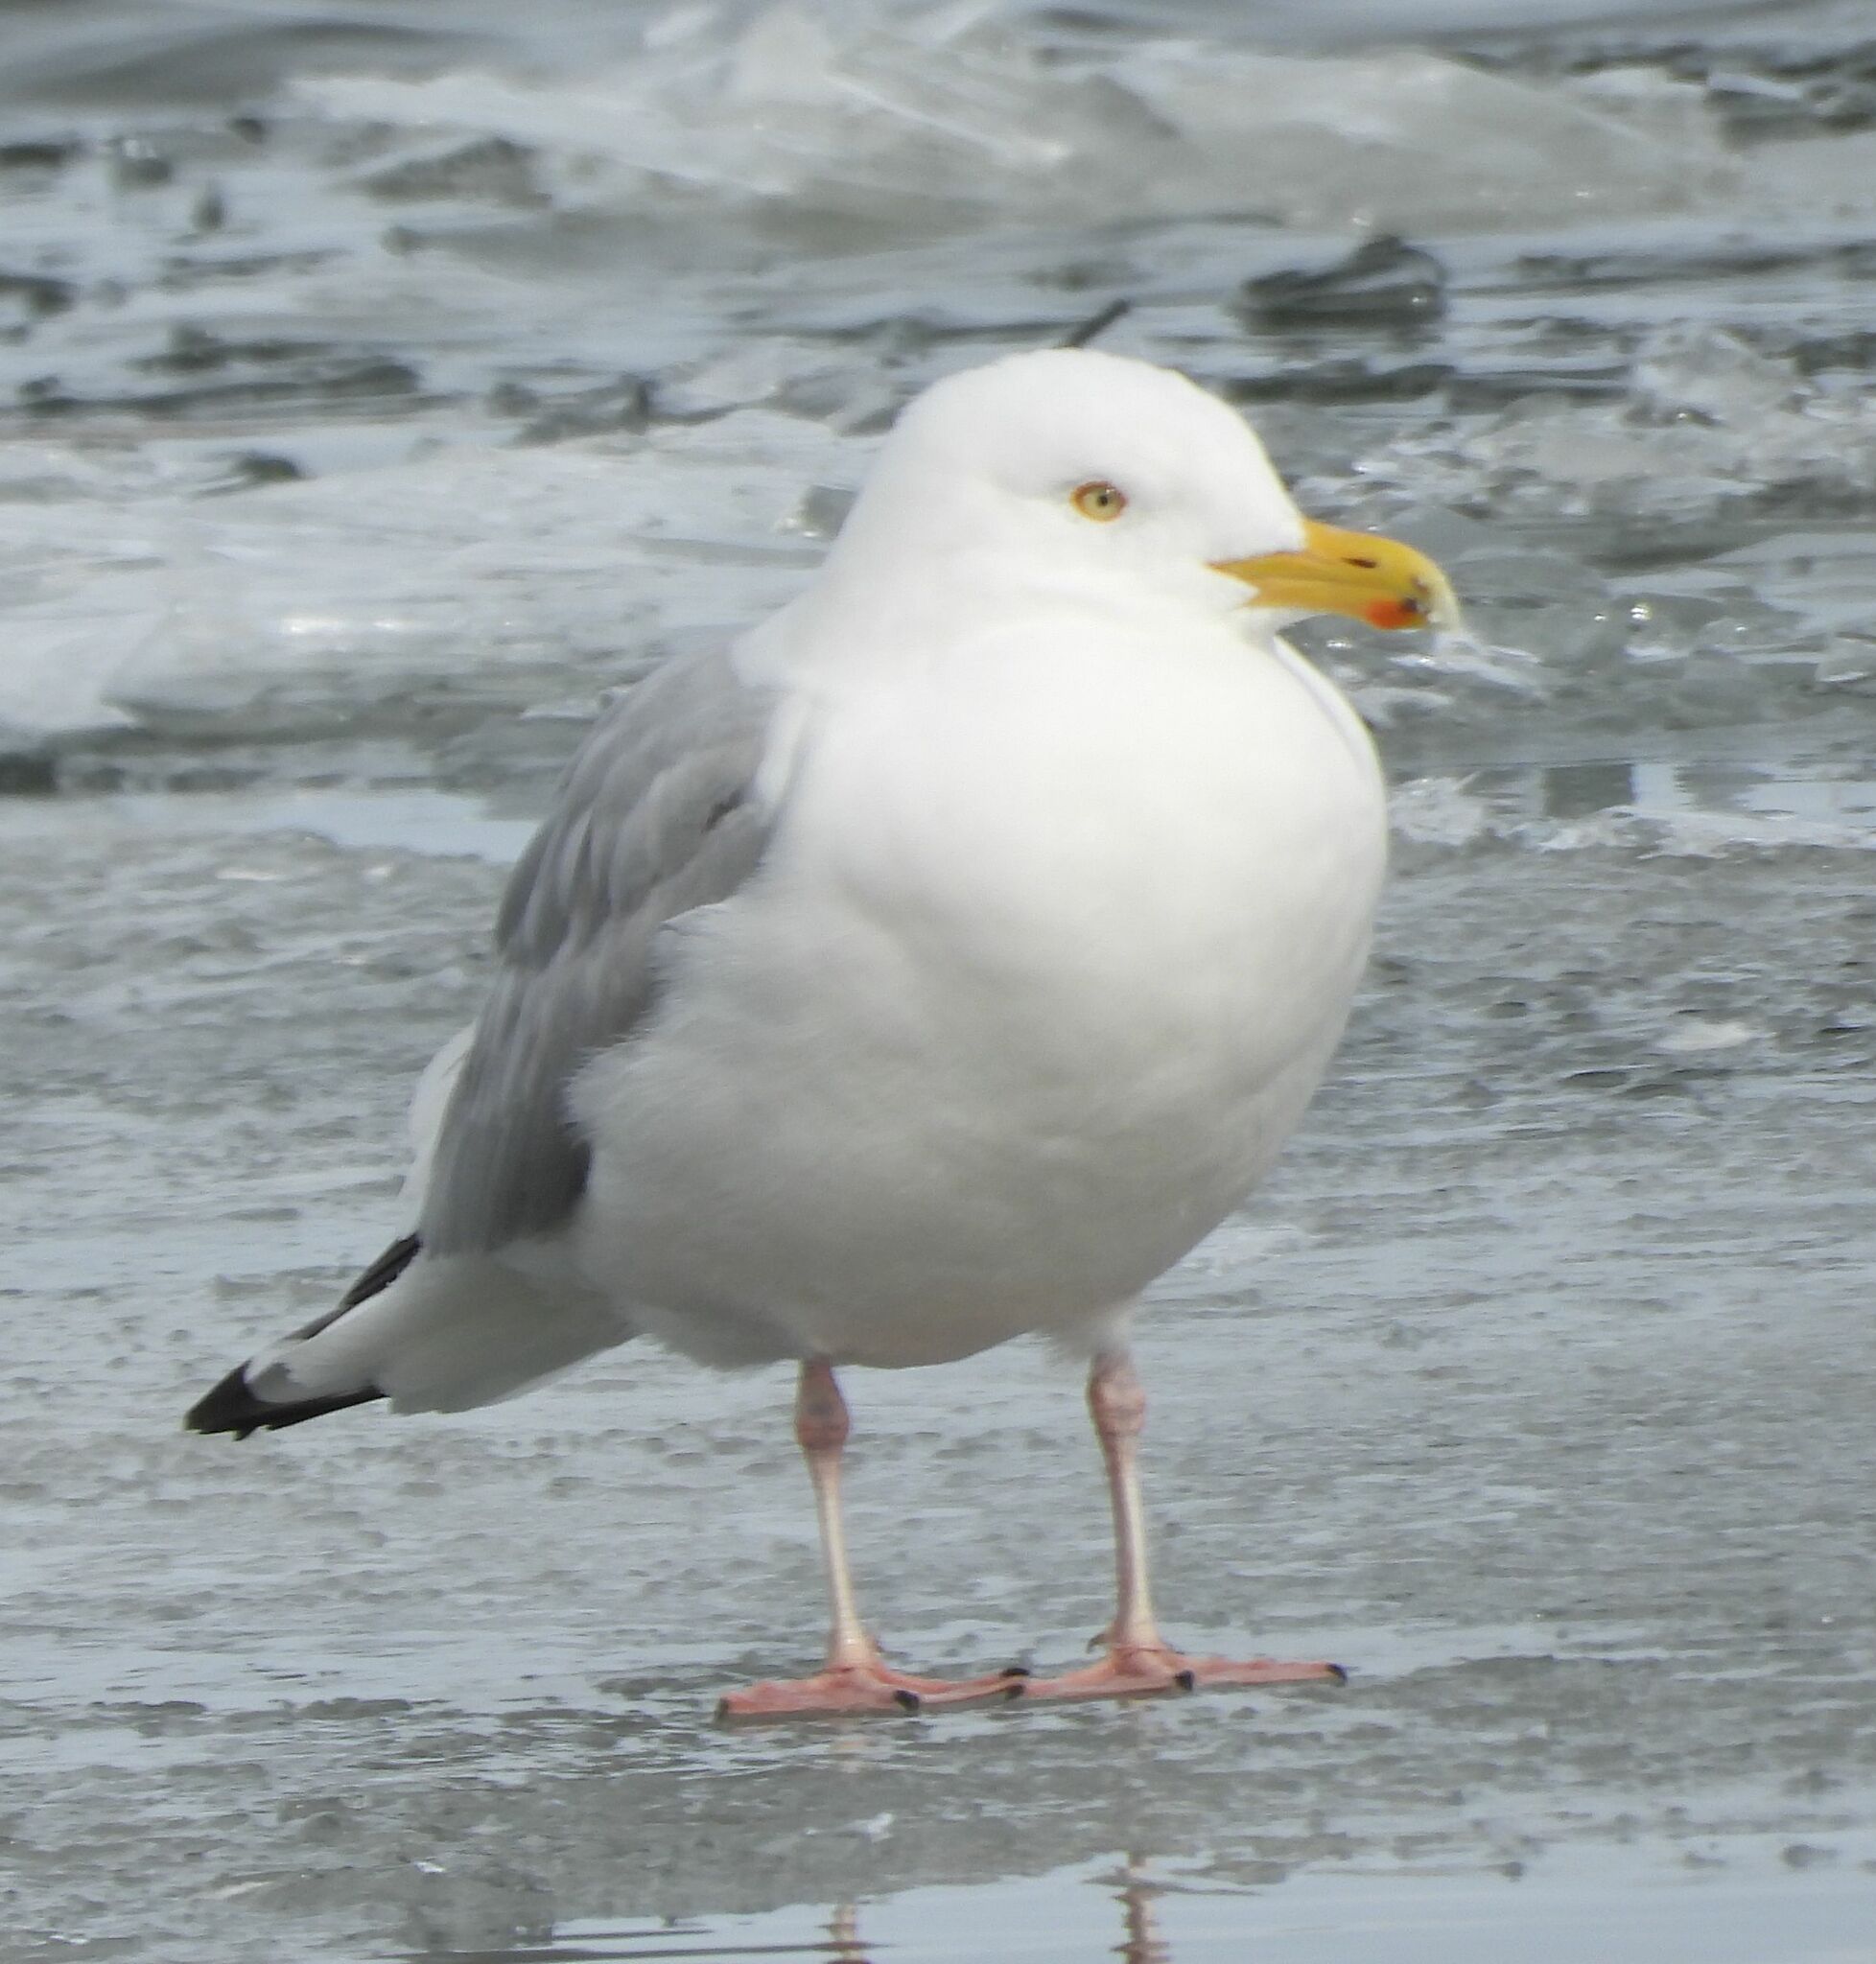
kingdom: Animalia
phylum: Chordata
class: Aves
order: Charadriiformes
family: Laridae
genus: Larus
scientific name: Larus argentatus
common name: Herring gull
